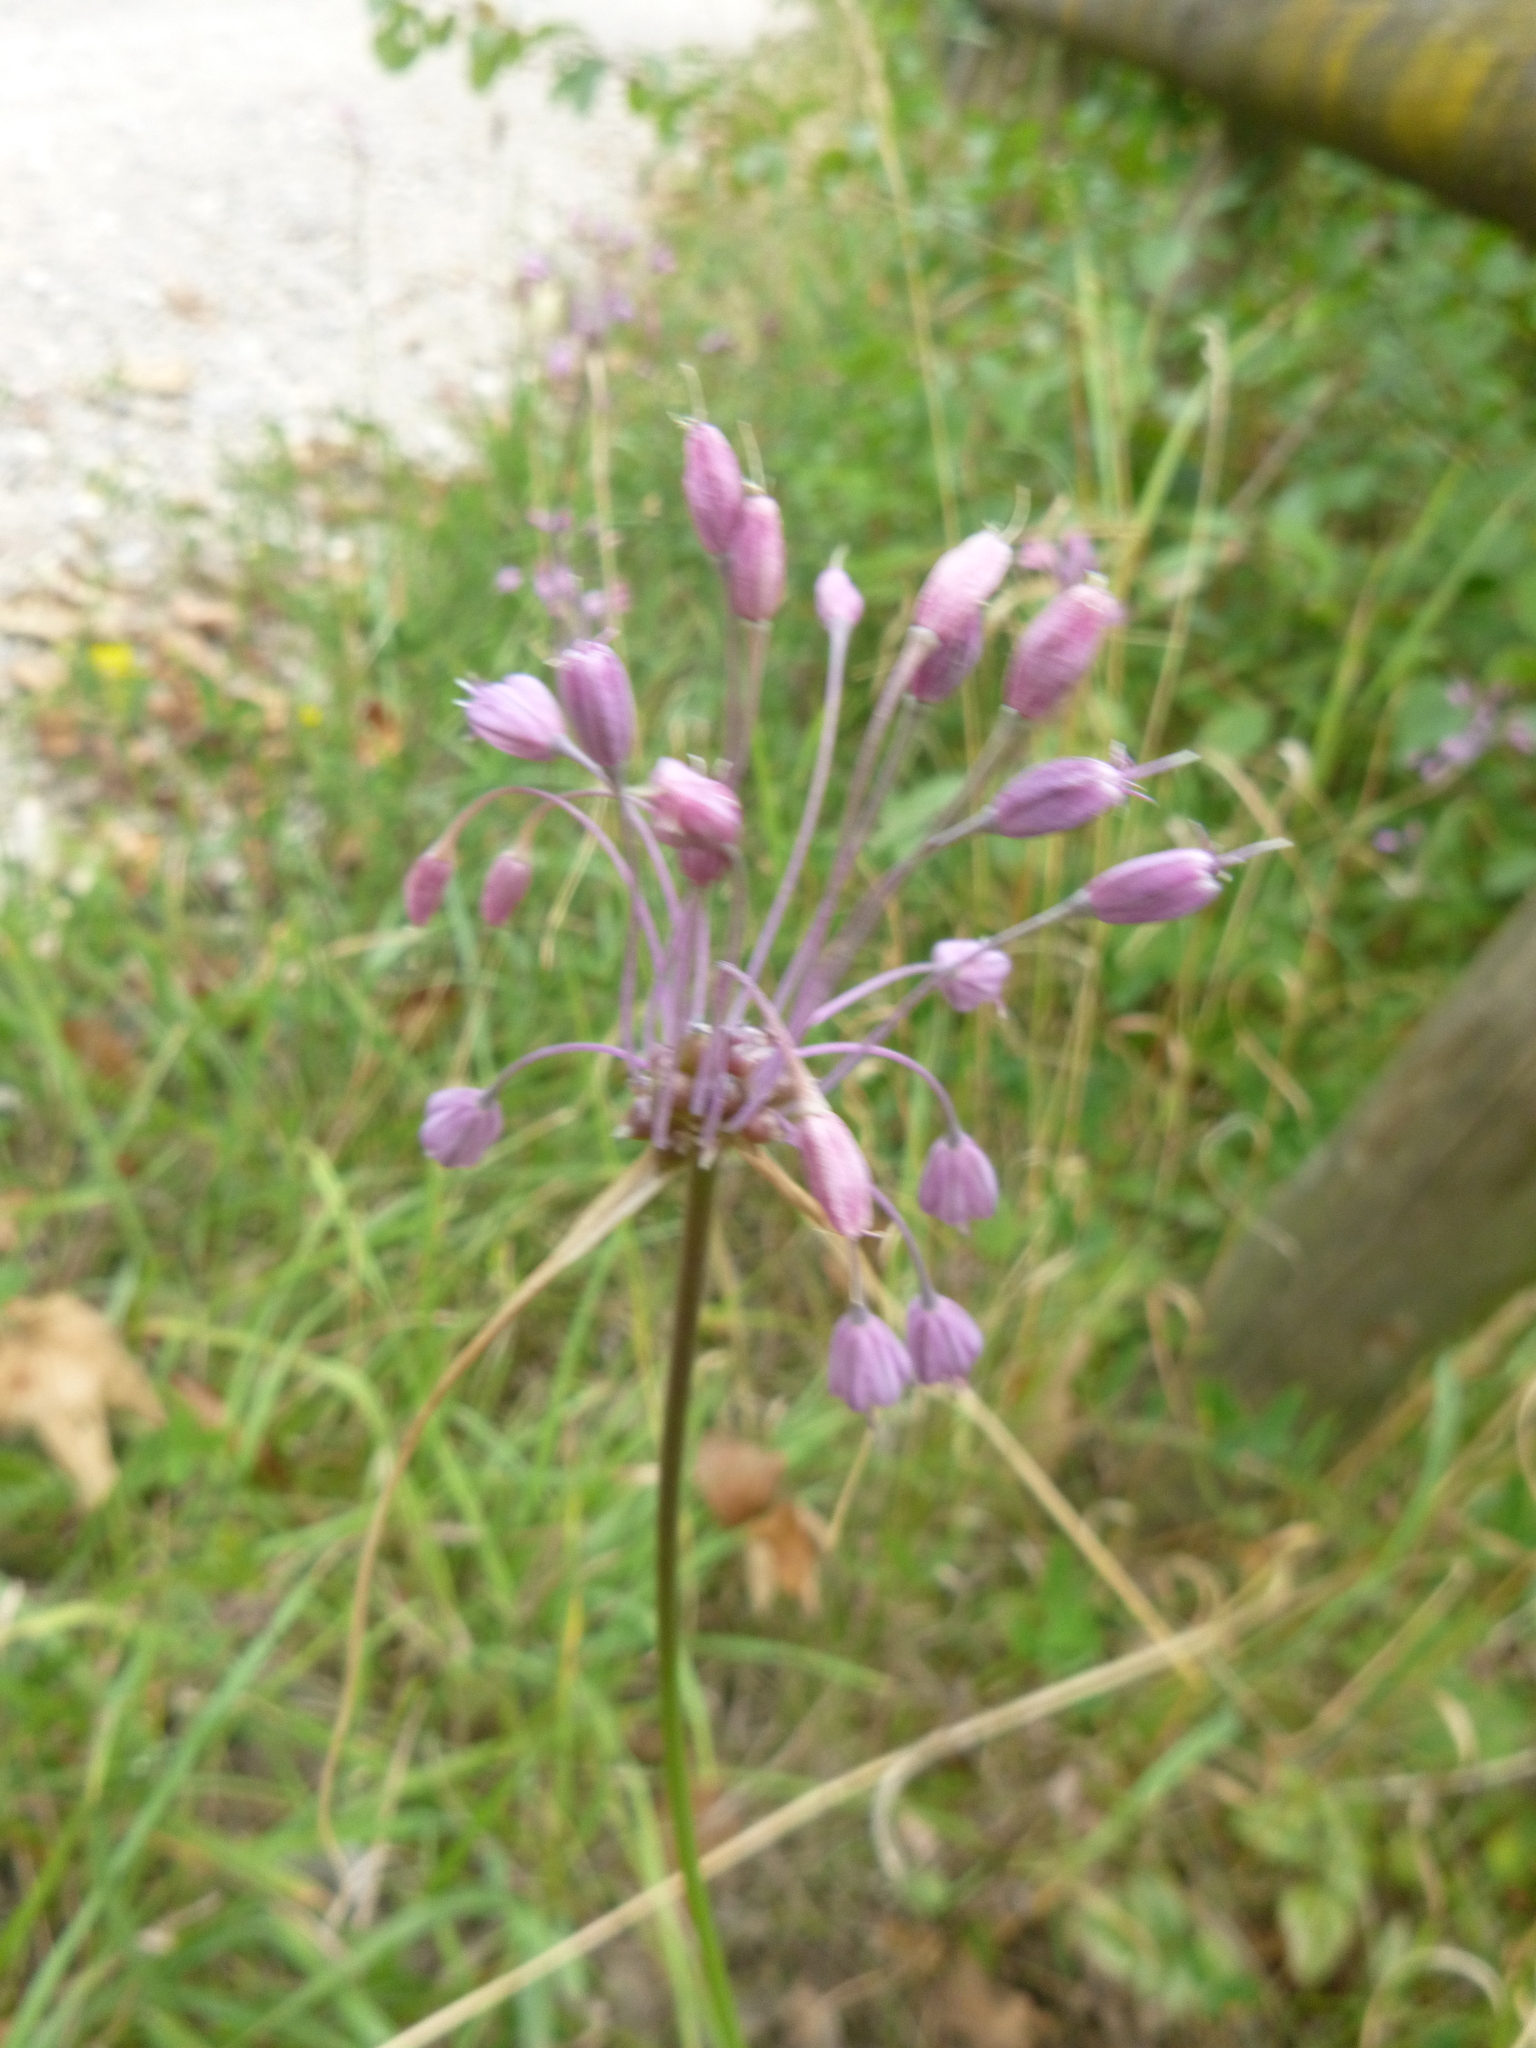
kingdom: Plantae
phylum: Tracheophyta
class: Liliopsida
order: Asparagales
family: Amaryllidaceae
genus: Allium
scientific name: Allium carinatum
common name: Keeled garlic
